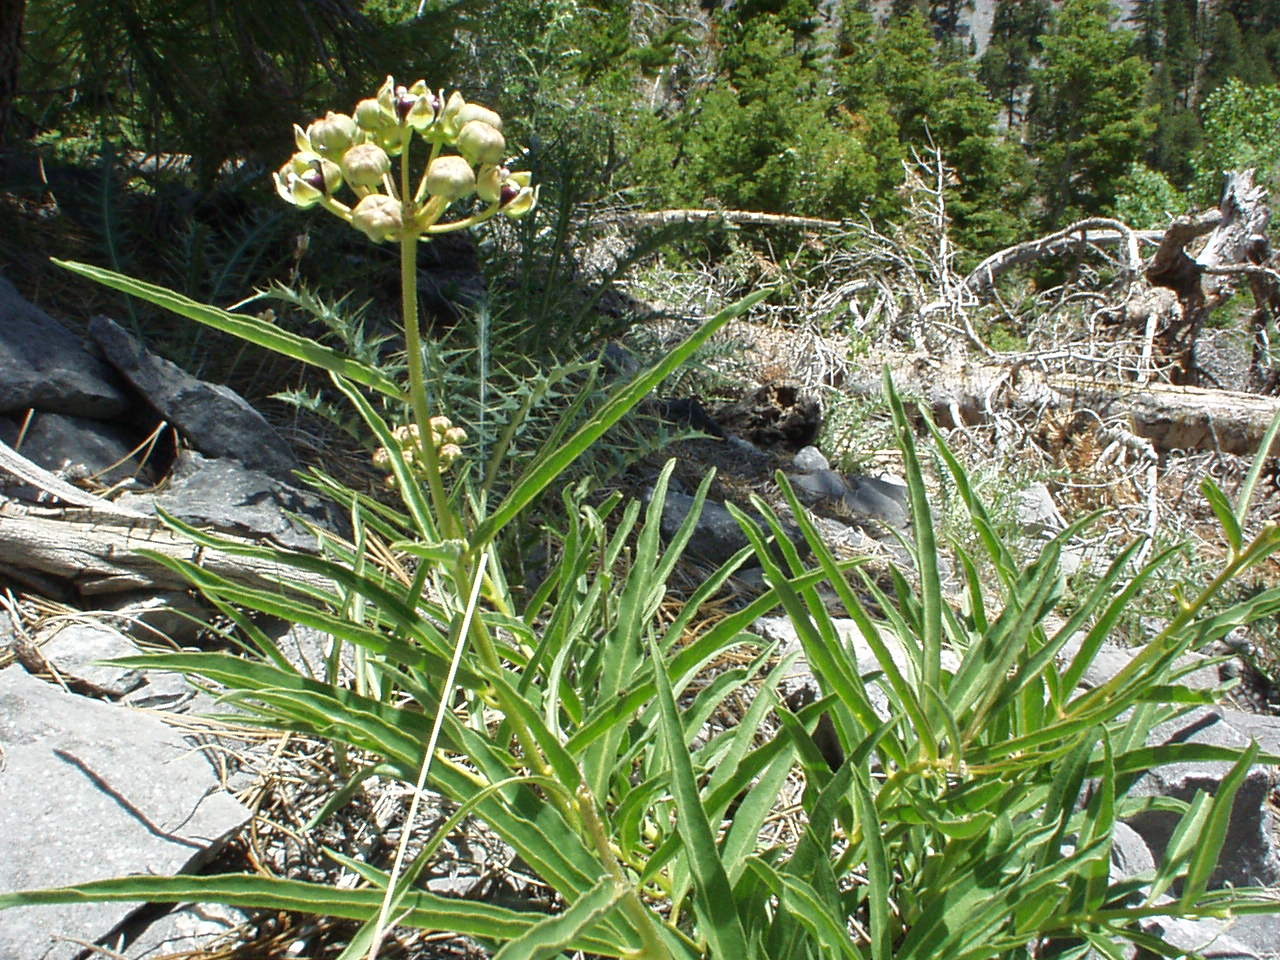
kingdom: Plantae
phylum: Tracheophyta
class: Magnoliopsida
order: Gentianales
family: Apocynaceae
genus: Asclepias
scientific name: Asclepias asperula
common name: Antelope horns
